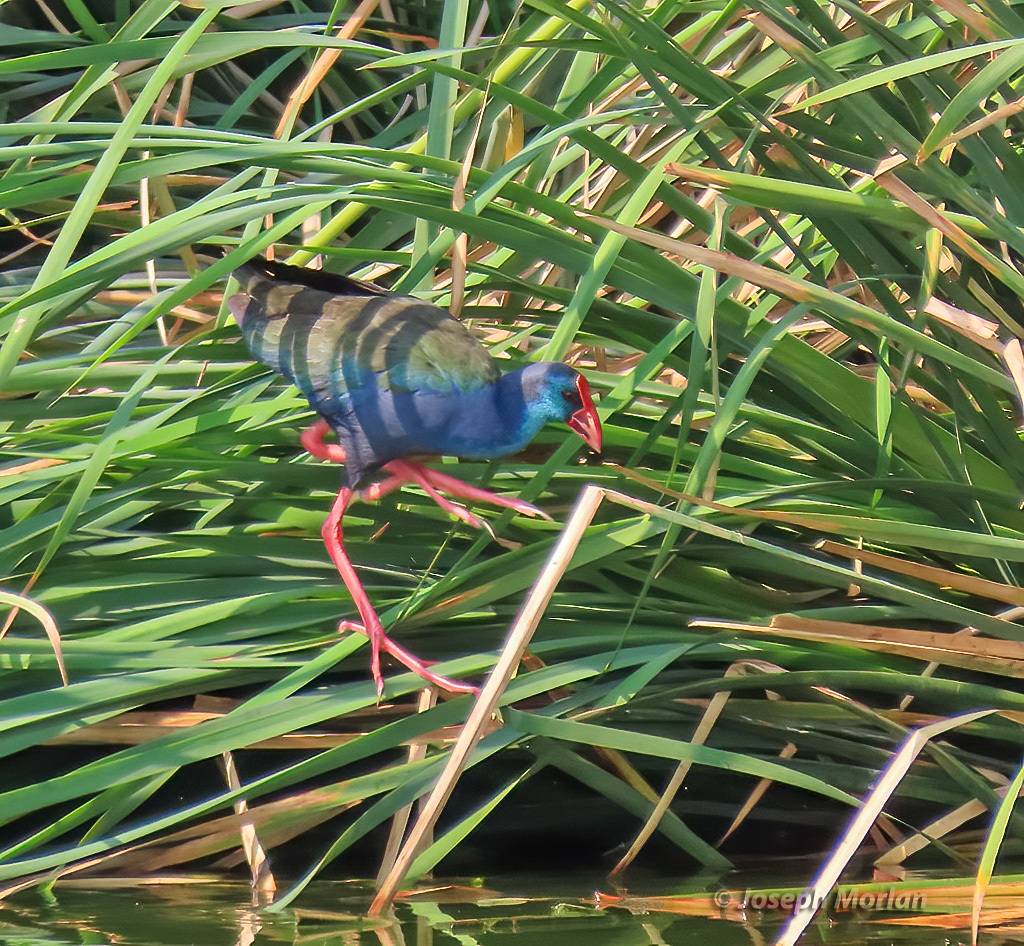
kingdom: Animalia
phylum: Chordata
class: Aves
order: Gruiformes
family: Rallidae
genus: Porphyrio
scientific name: Porphyrio porphyrio
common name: Purple swamphen
